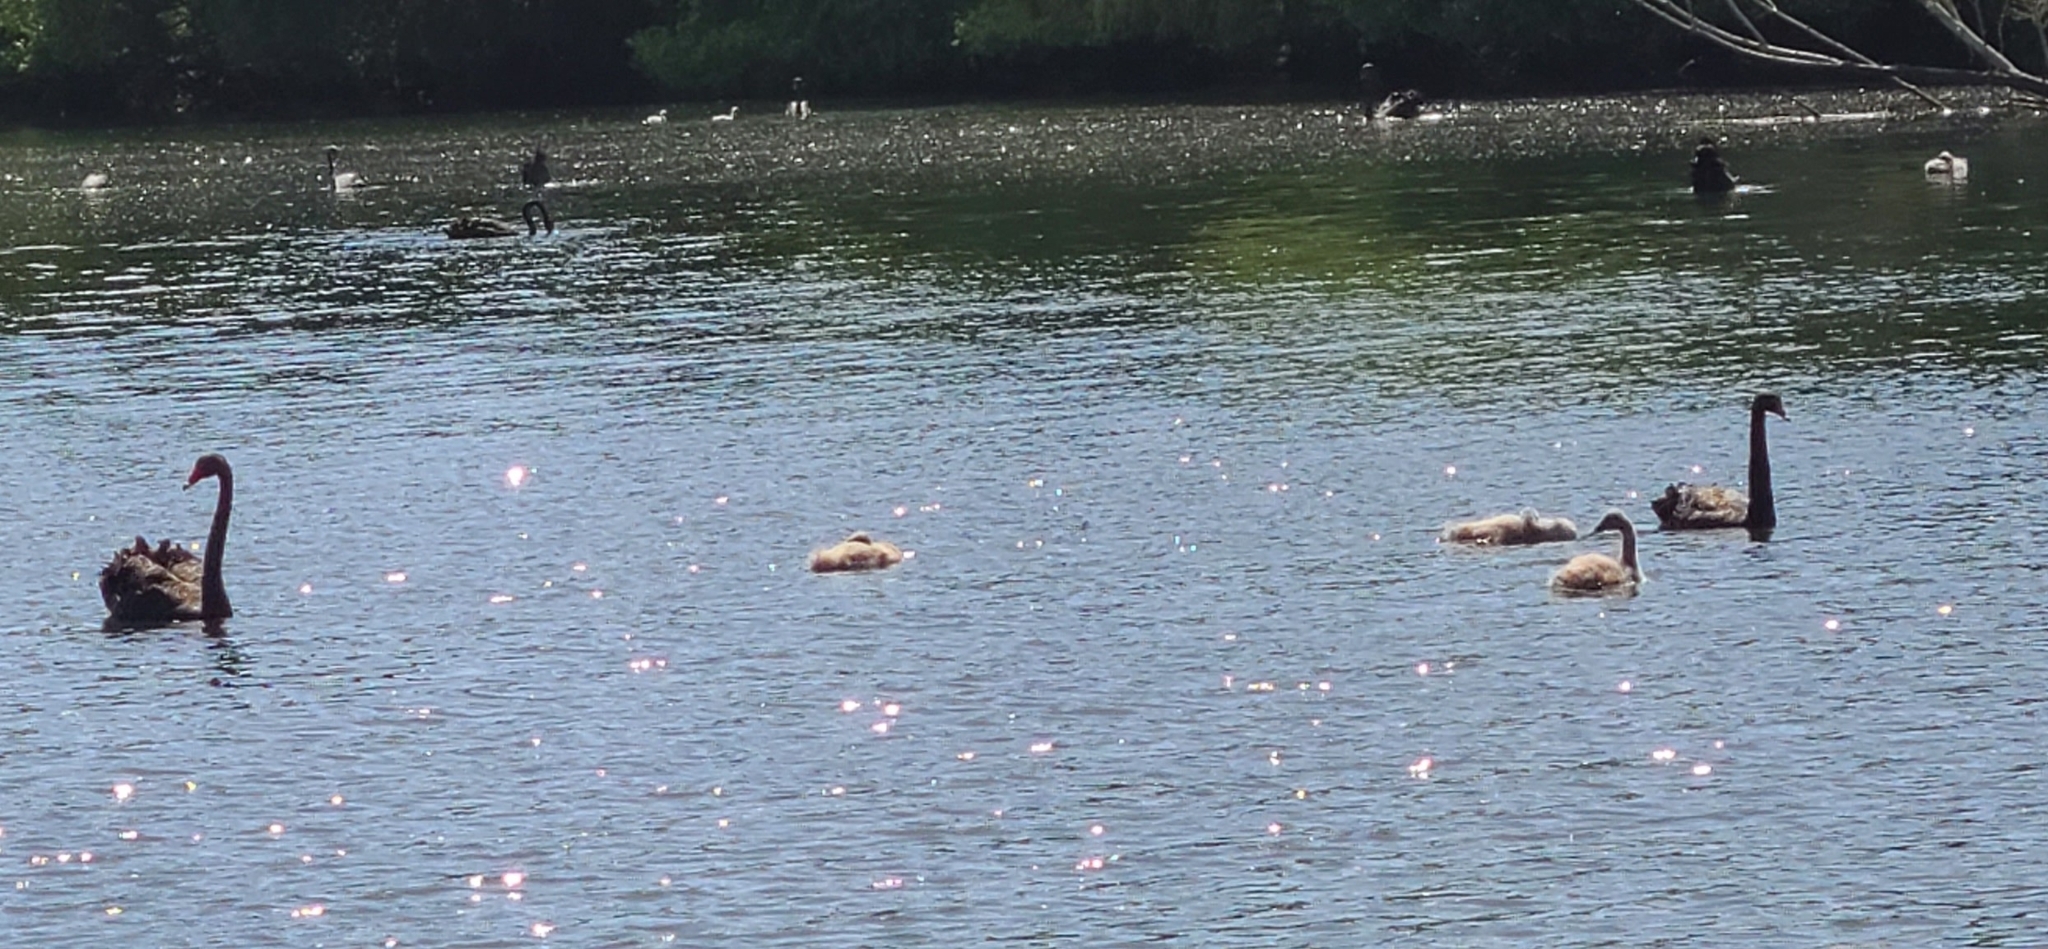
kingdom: Animalia
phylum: Chordata
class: Aves
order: Anseriformes
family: Anatidae
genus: Cygnus
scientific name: Cygnus atratus
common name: Black swan
